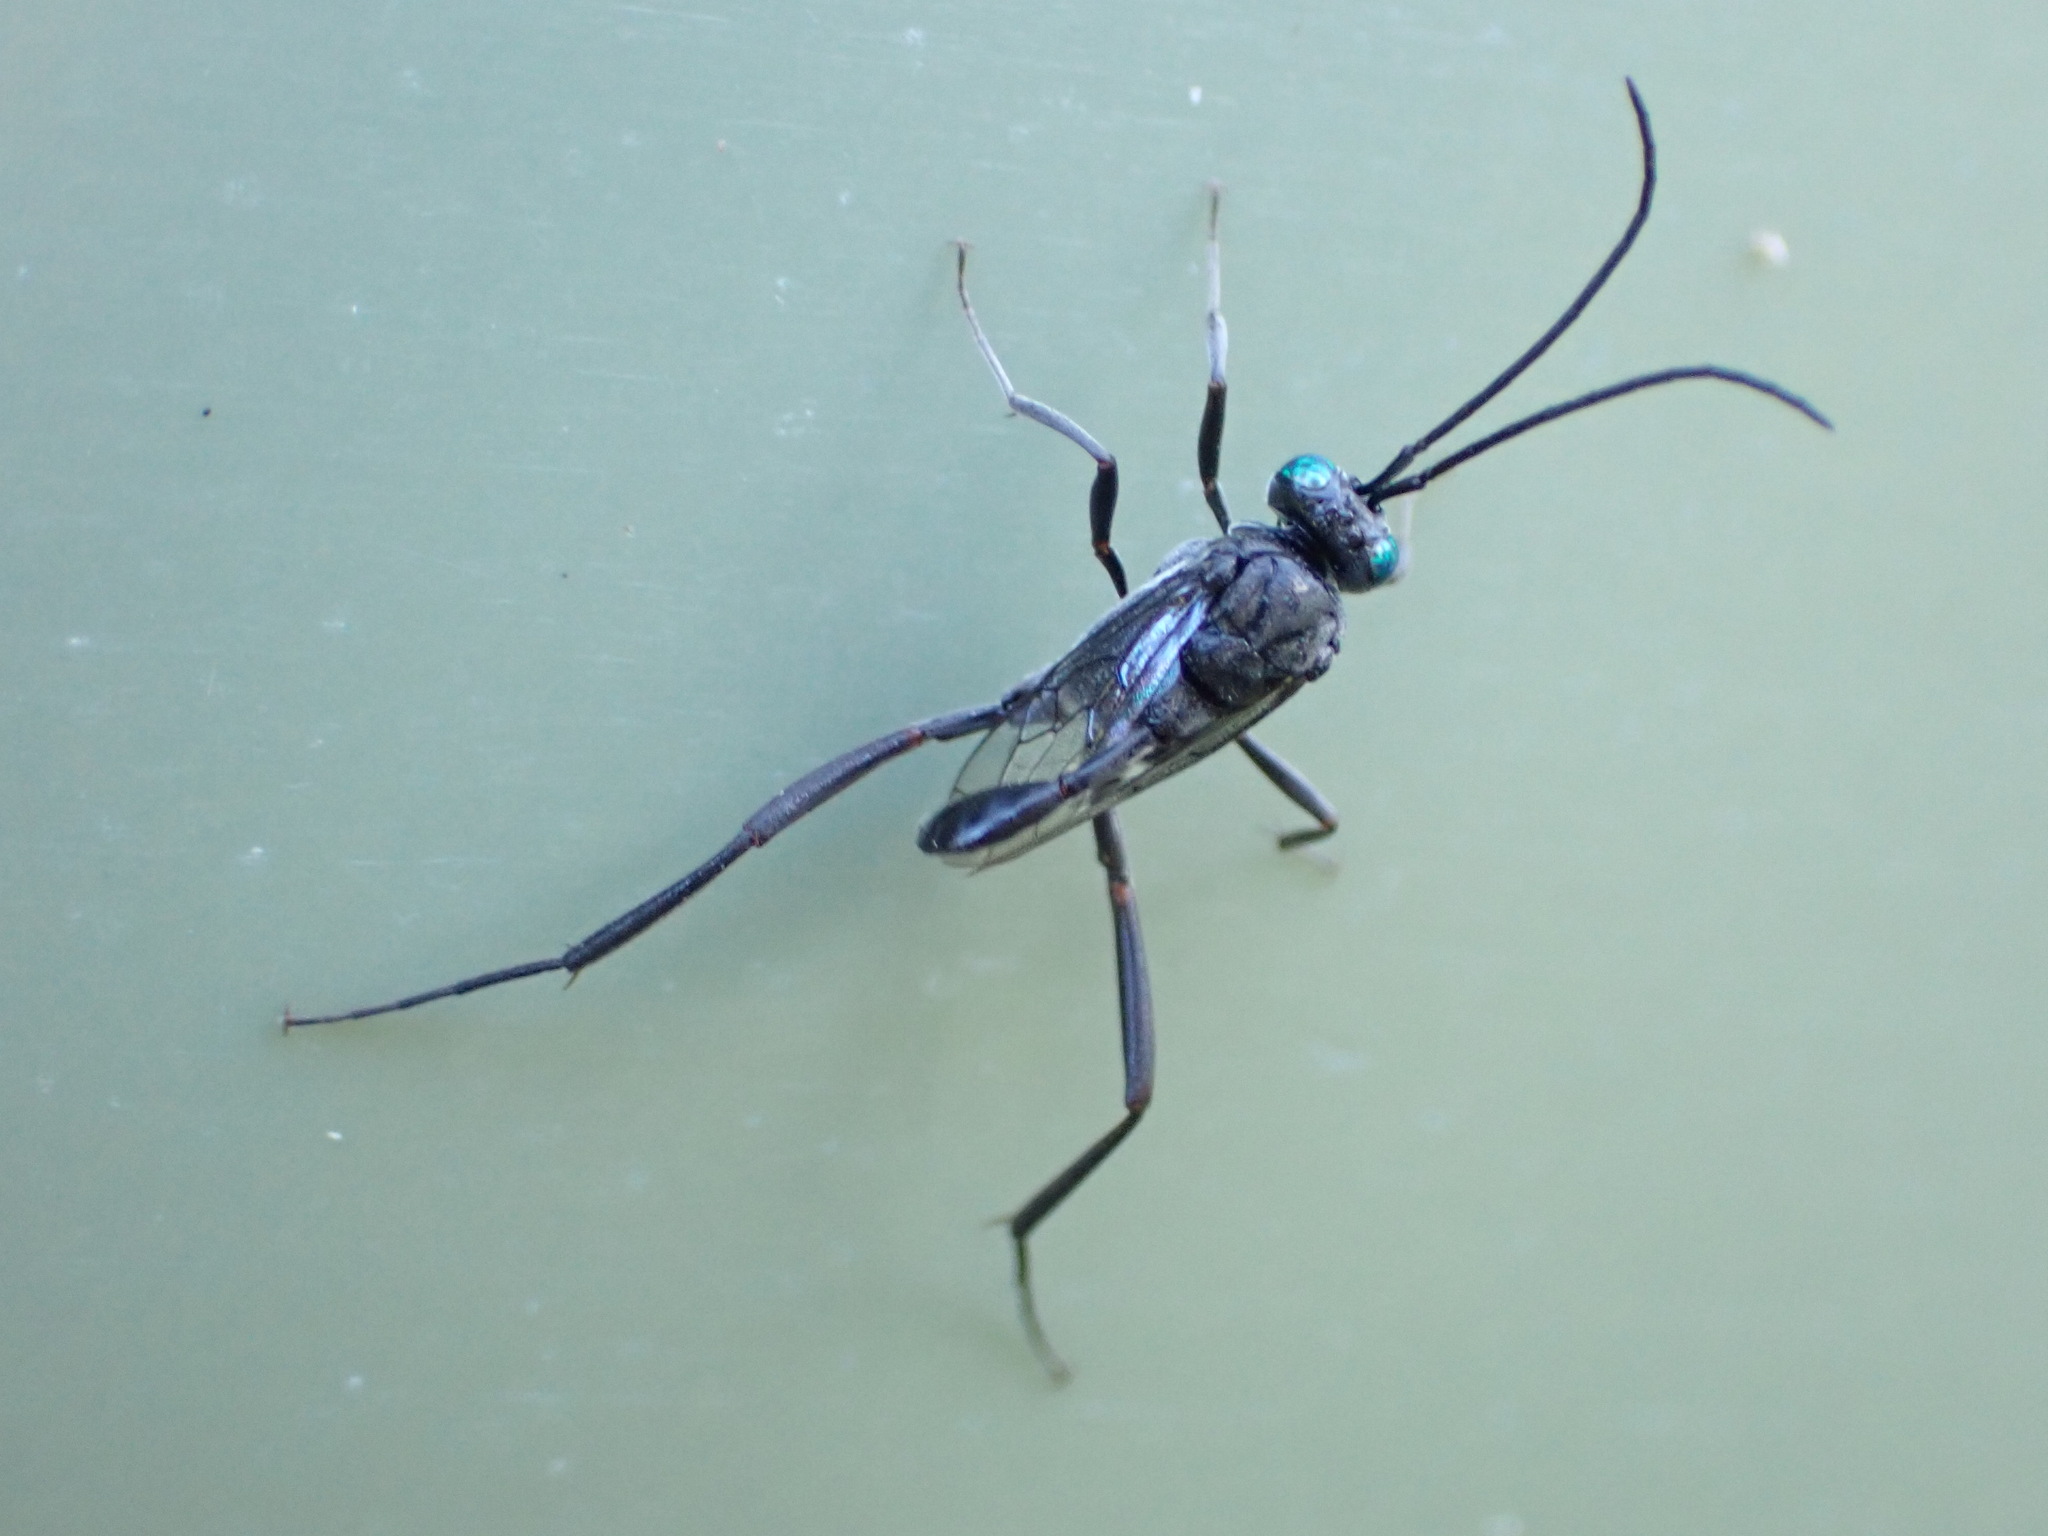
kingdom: Animalia
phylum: Arthropoda
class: Insecta
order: Hymenoptera
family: Evaniidae
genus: Evania
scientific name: Evania appendigaster
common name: Ensign wasp
